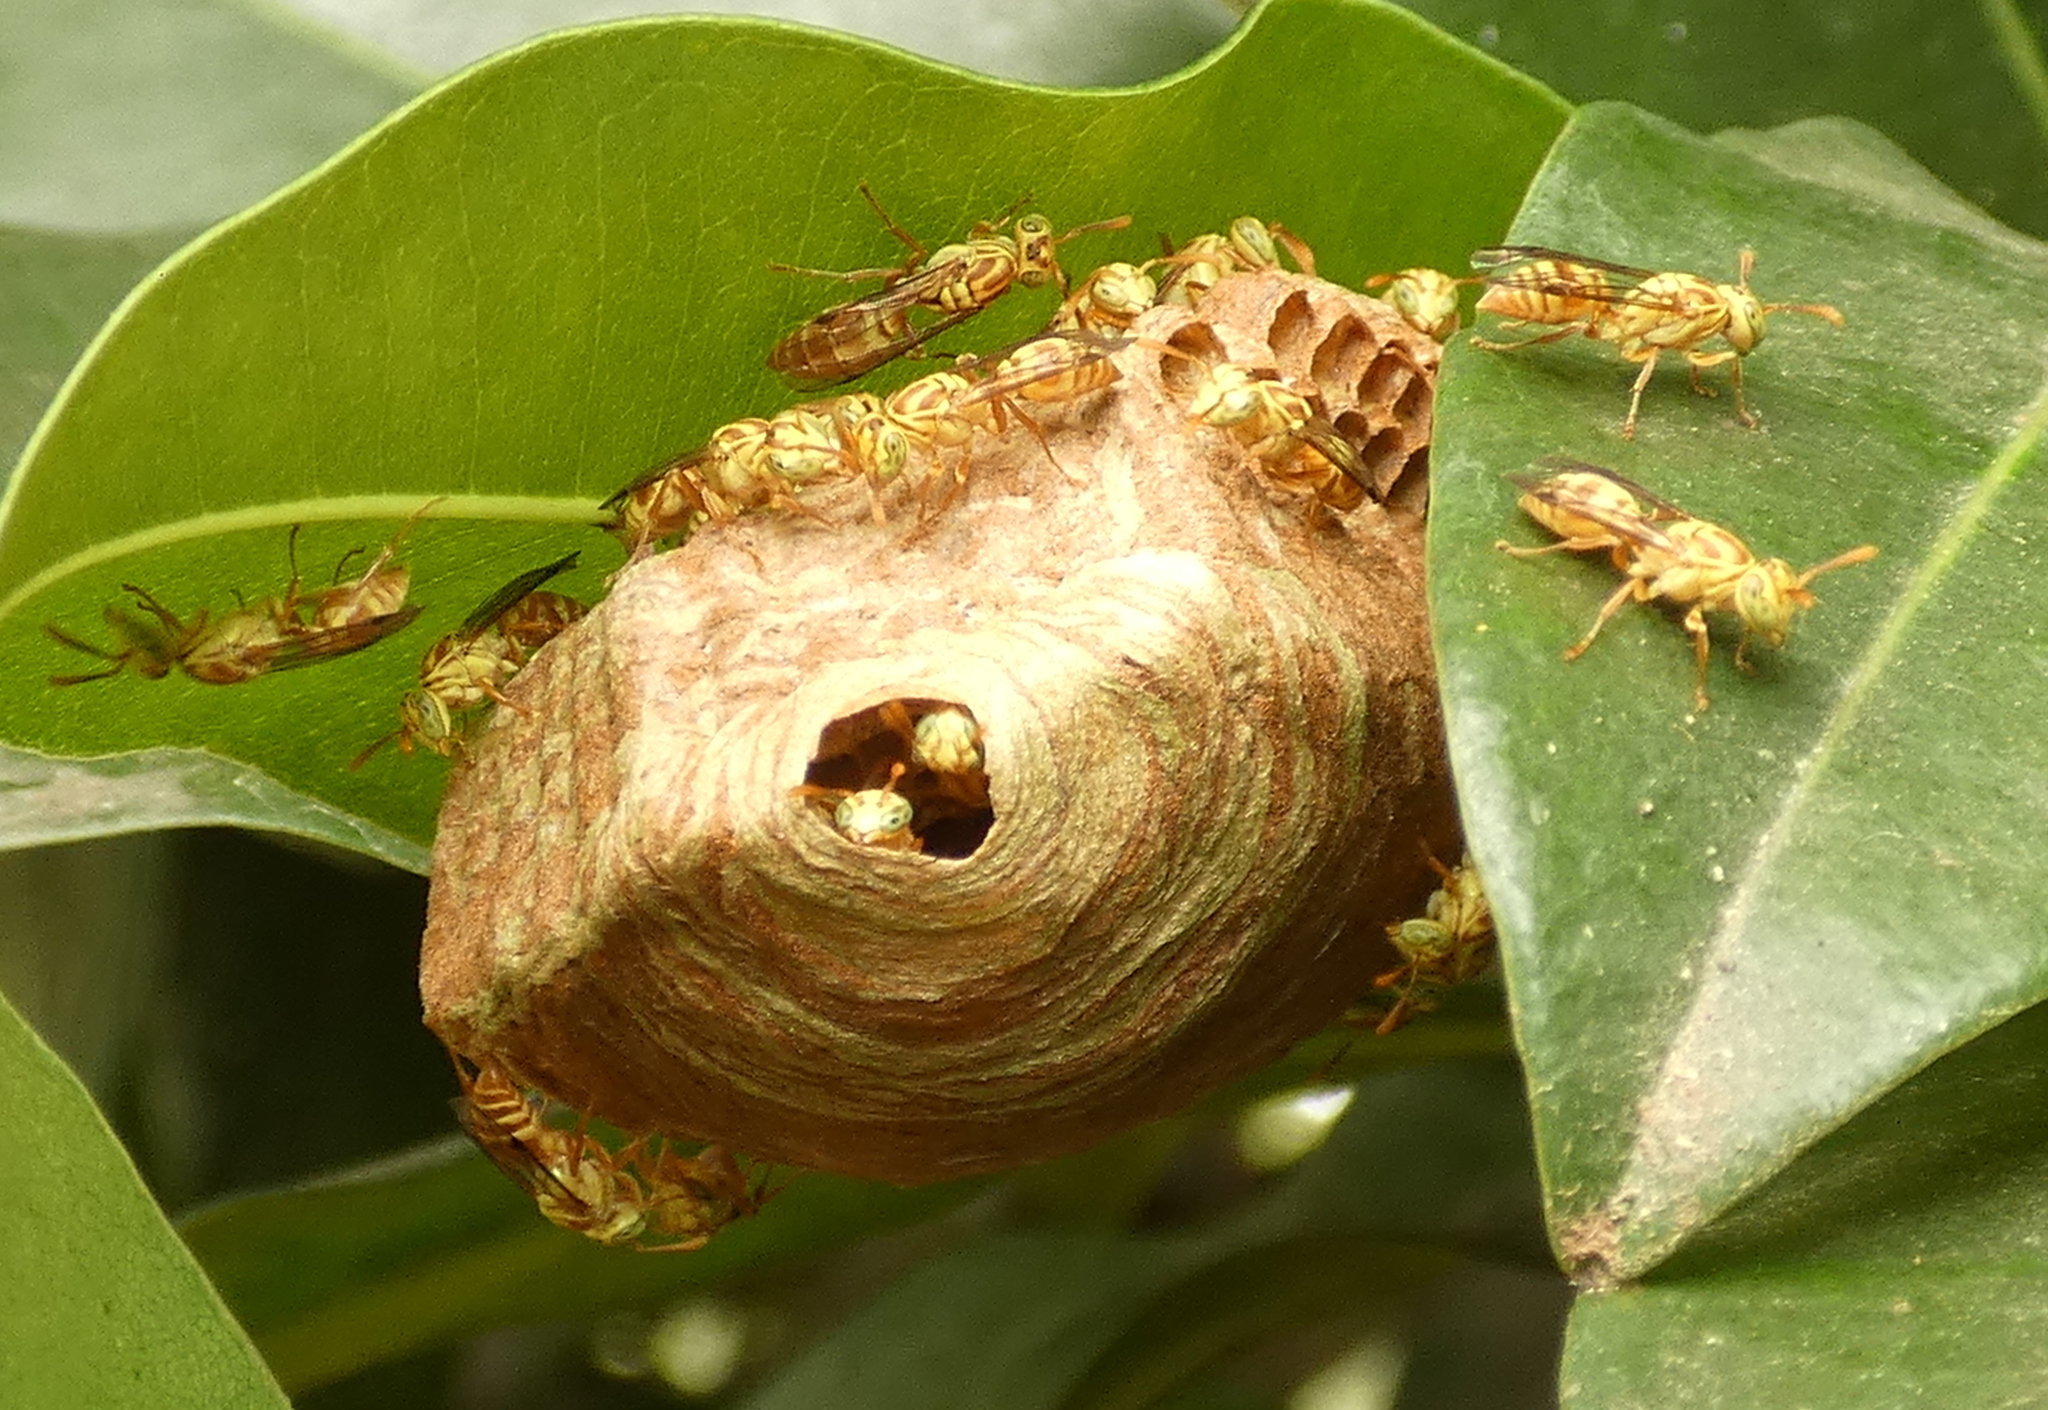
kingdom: Animalia
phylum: Arthropoda
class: Insecta
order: Hymenoptera
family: Vespidae
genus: Protopolybia
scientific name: Protopolybia potiguara
